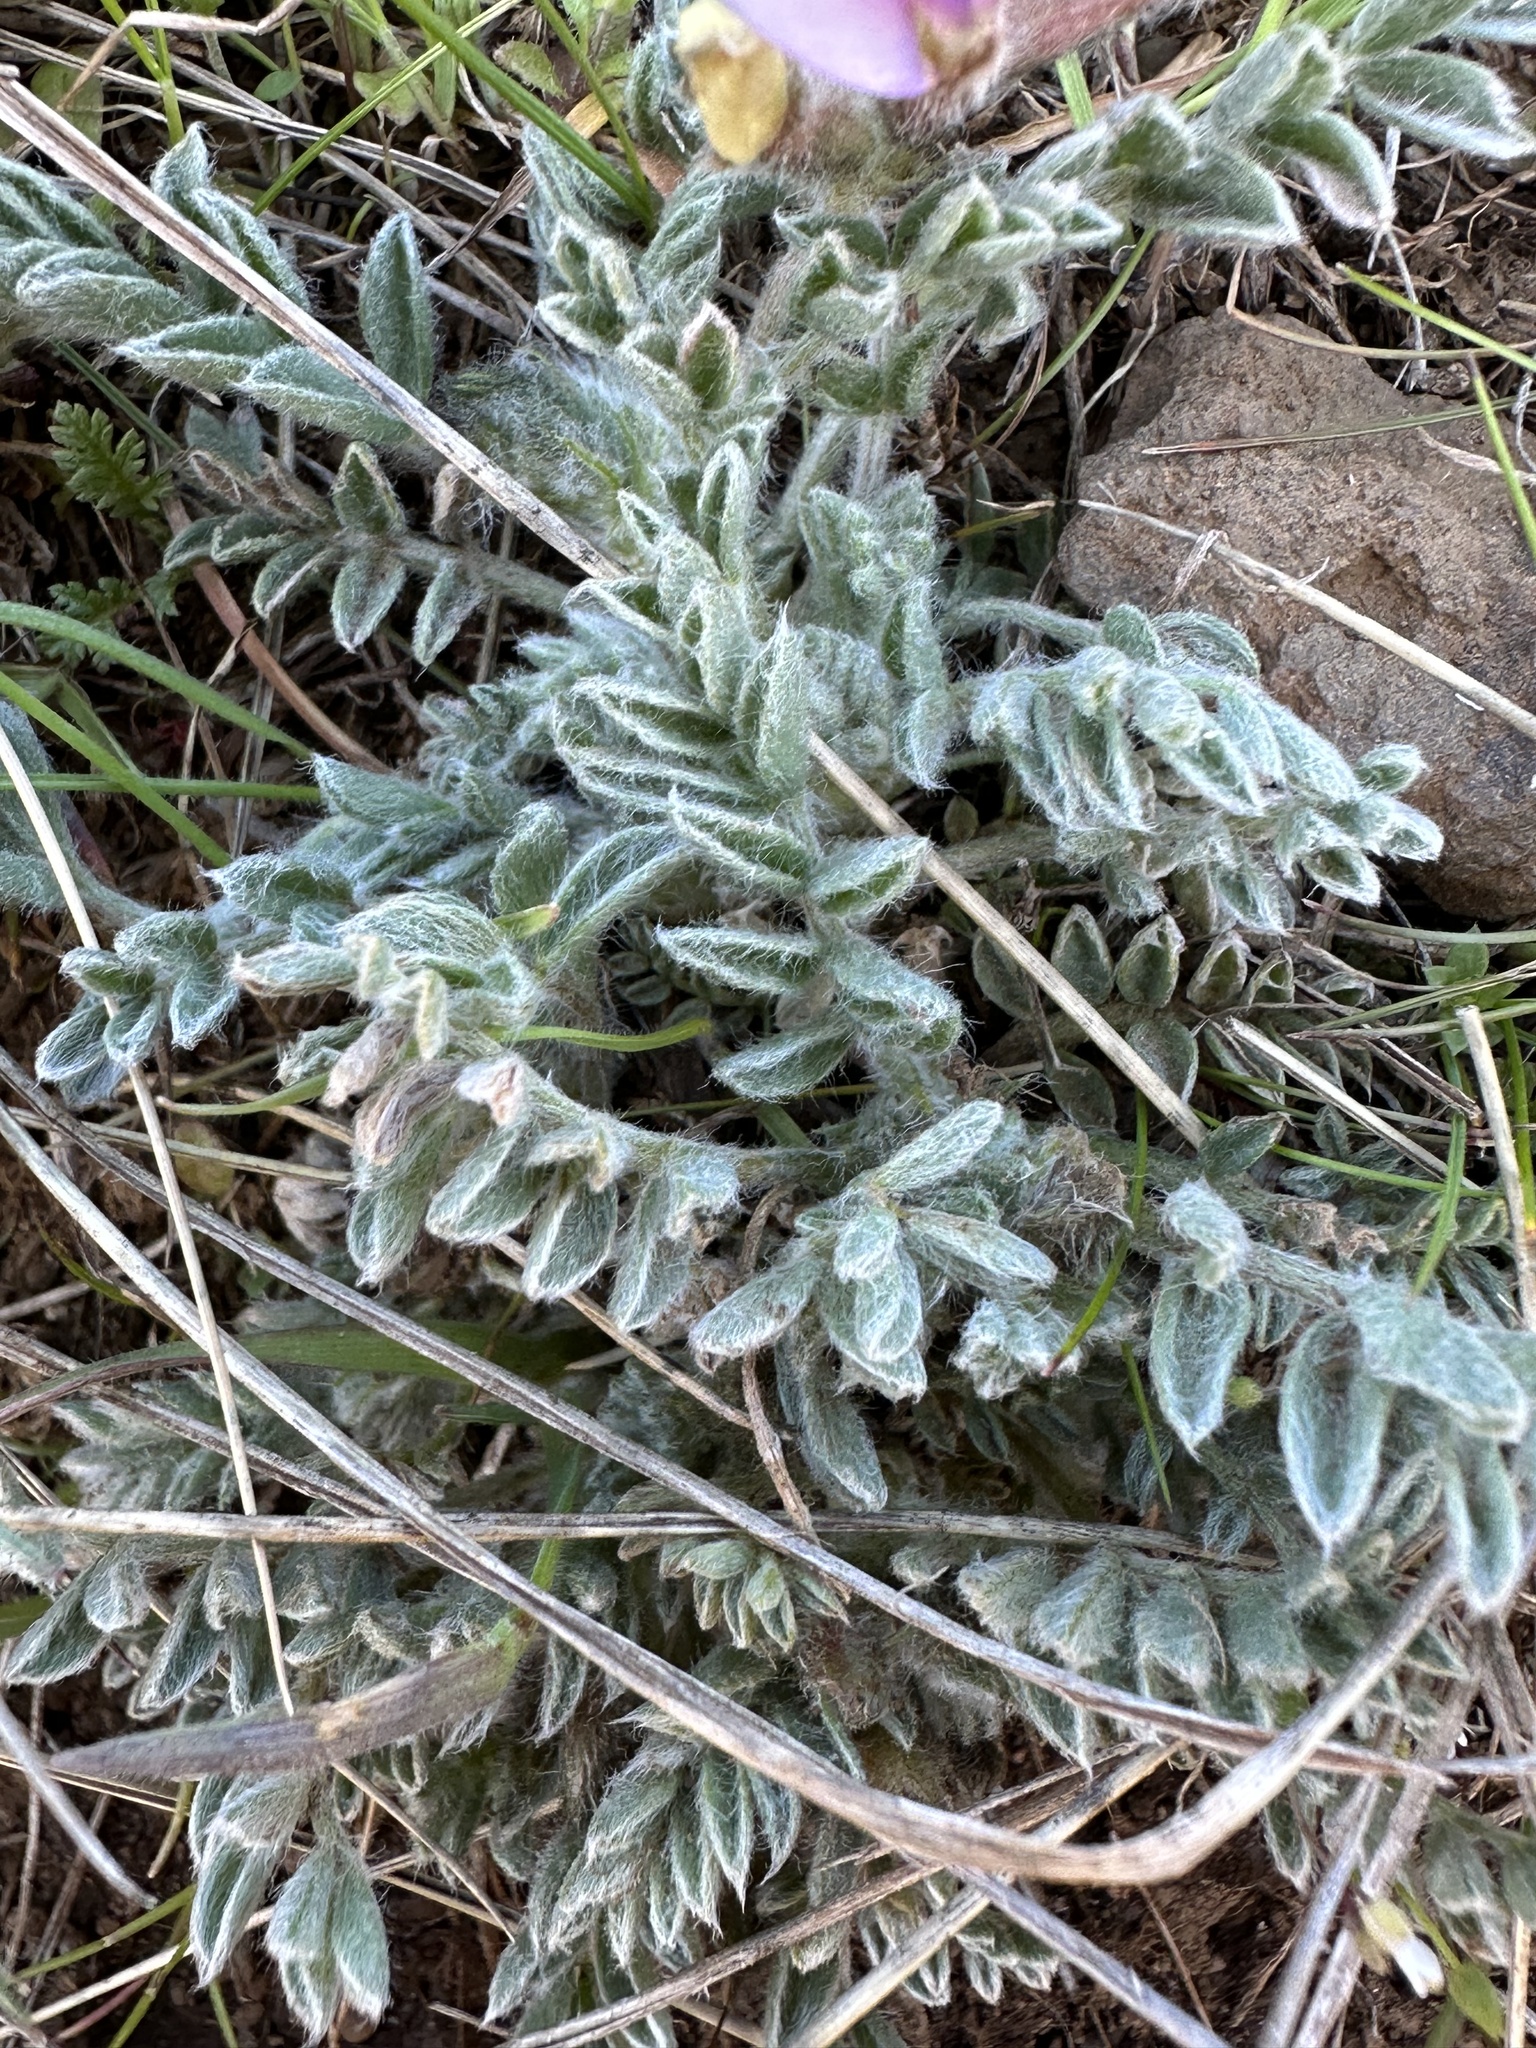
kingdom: Plantae
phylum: Tracheophyta
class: Magnoliopsida
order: Fabales
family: Fabaceae
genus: Astragalus
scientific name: Astragalus purshii
